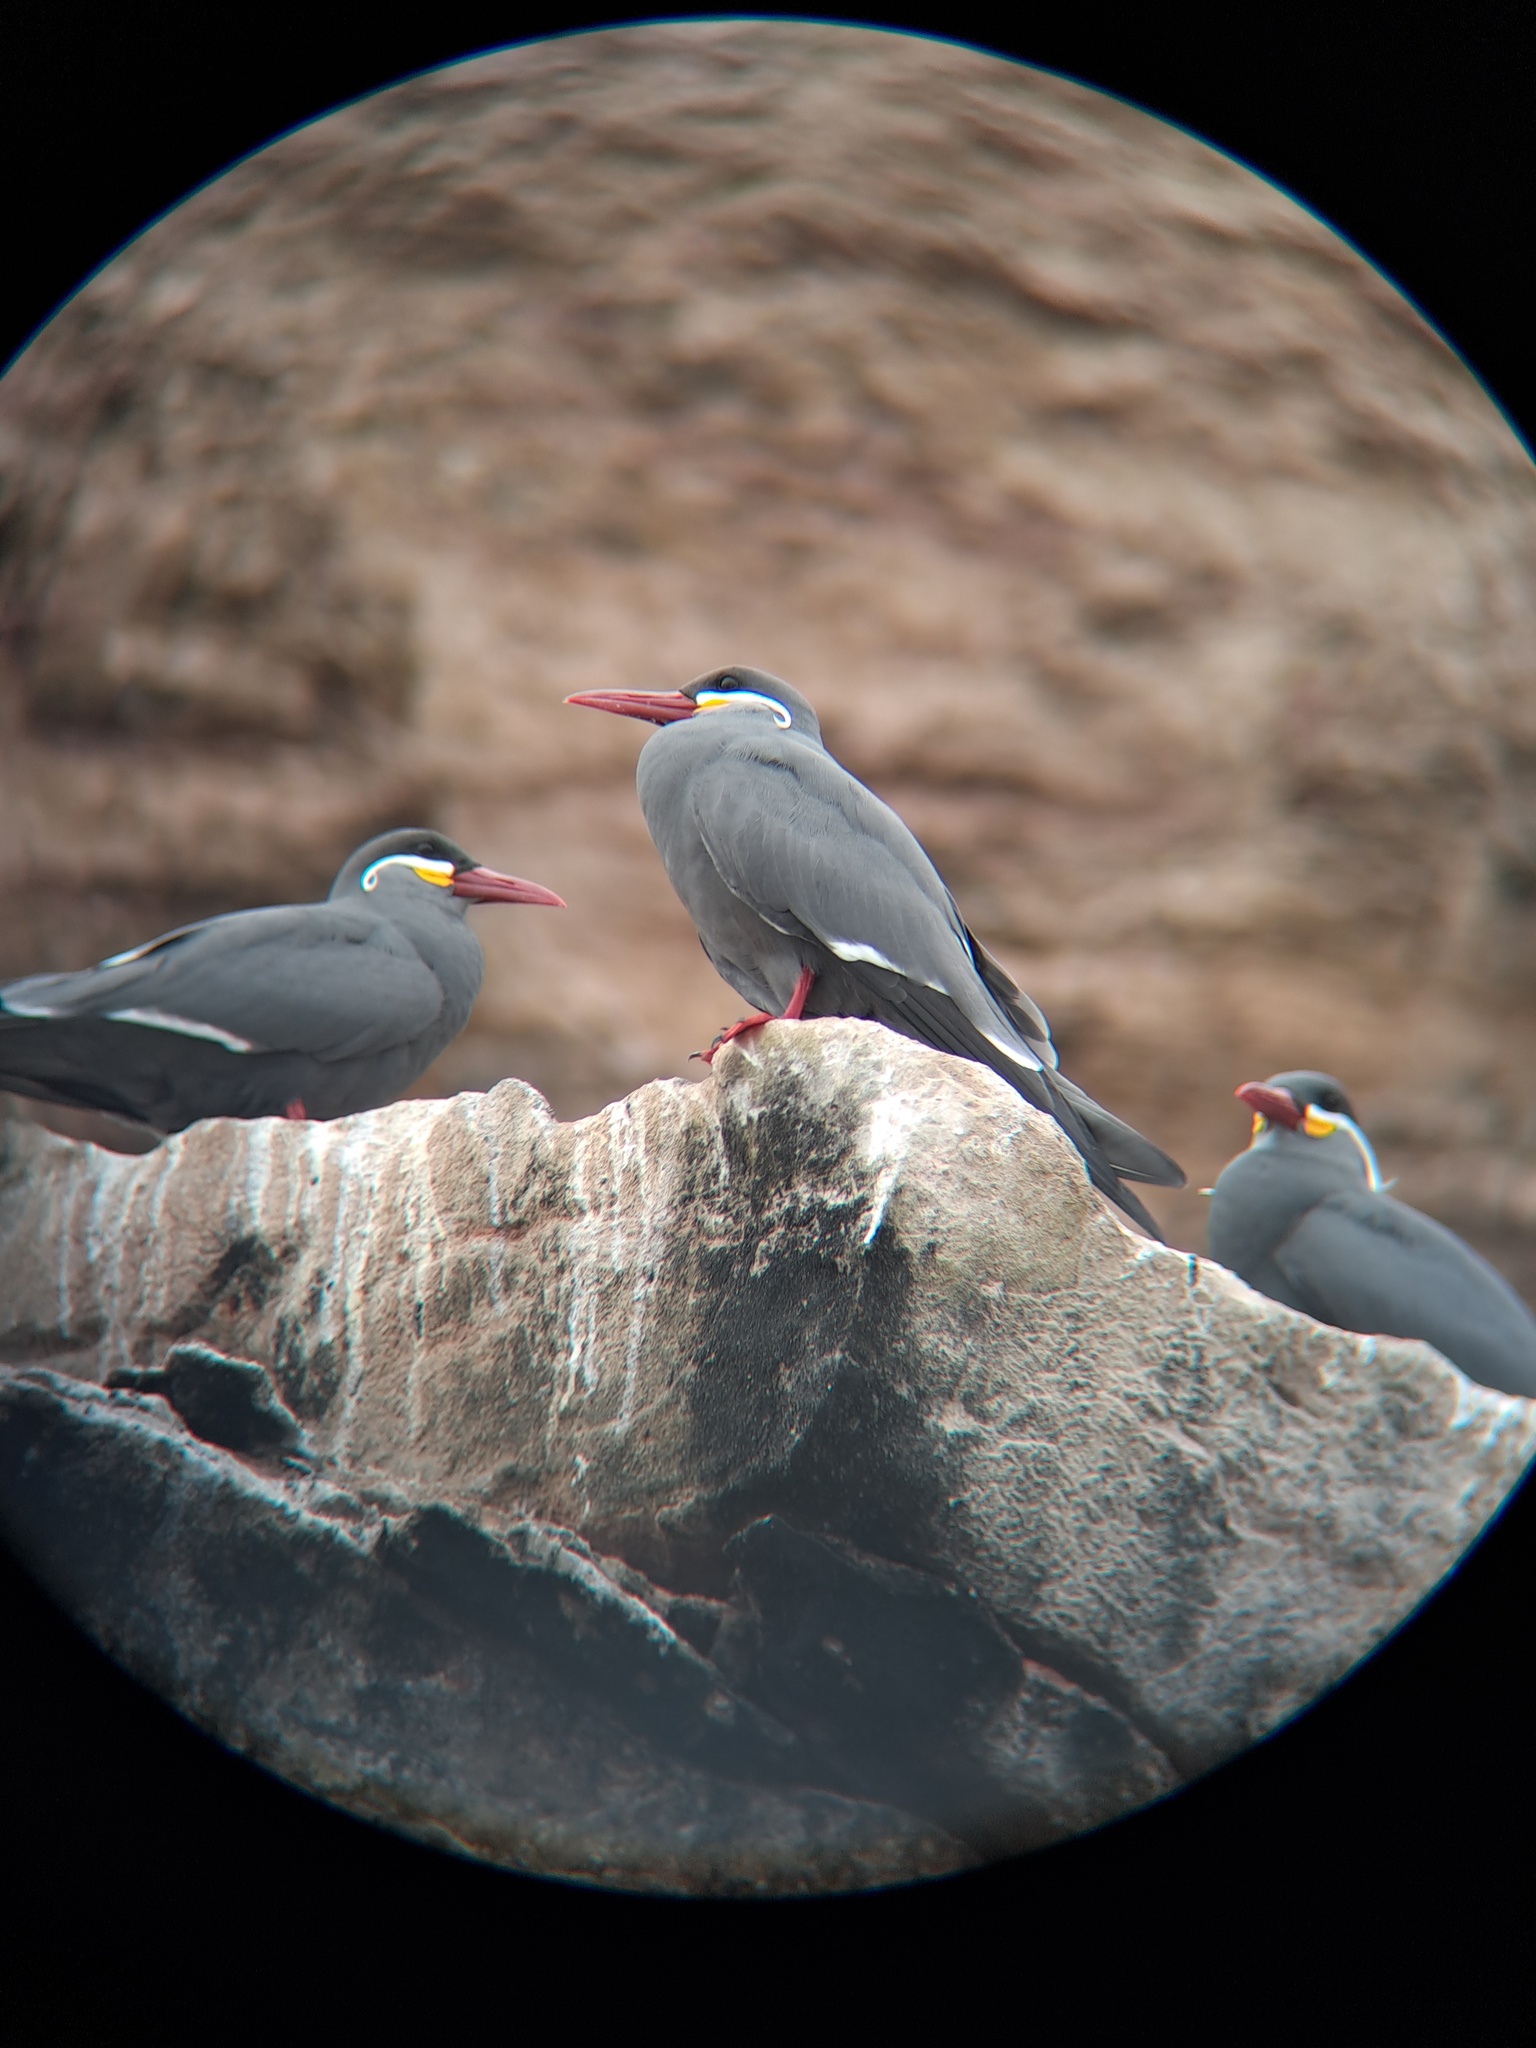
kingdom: Animalia
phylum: Chordata
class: Aves
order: Charadriiformes
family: Laridae
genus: Larosterna
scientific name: Larosterna inca
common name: Inca tern
